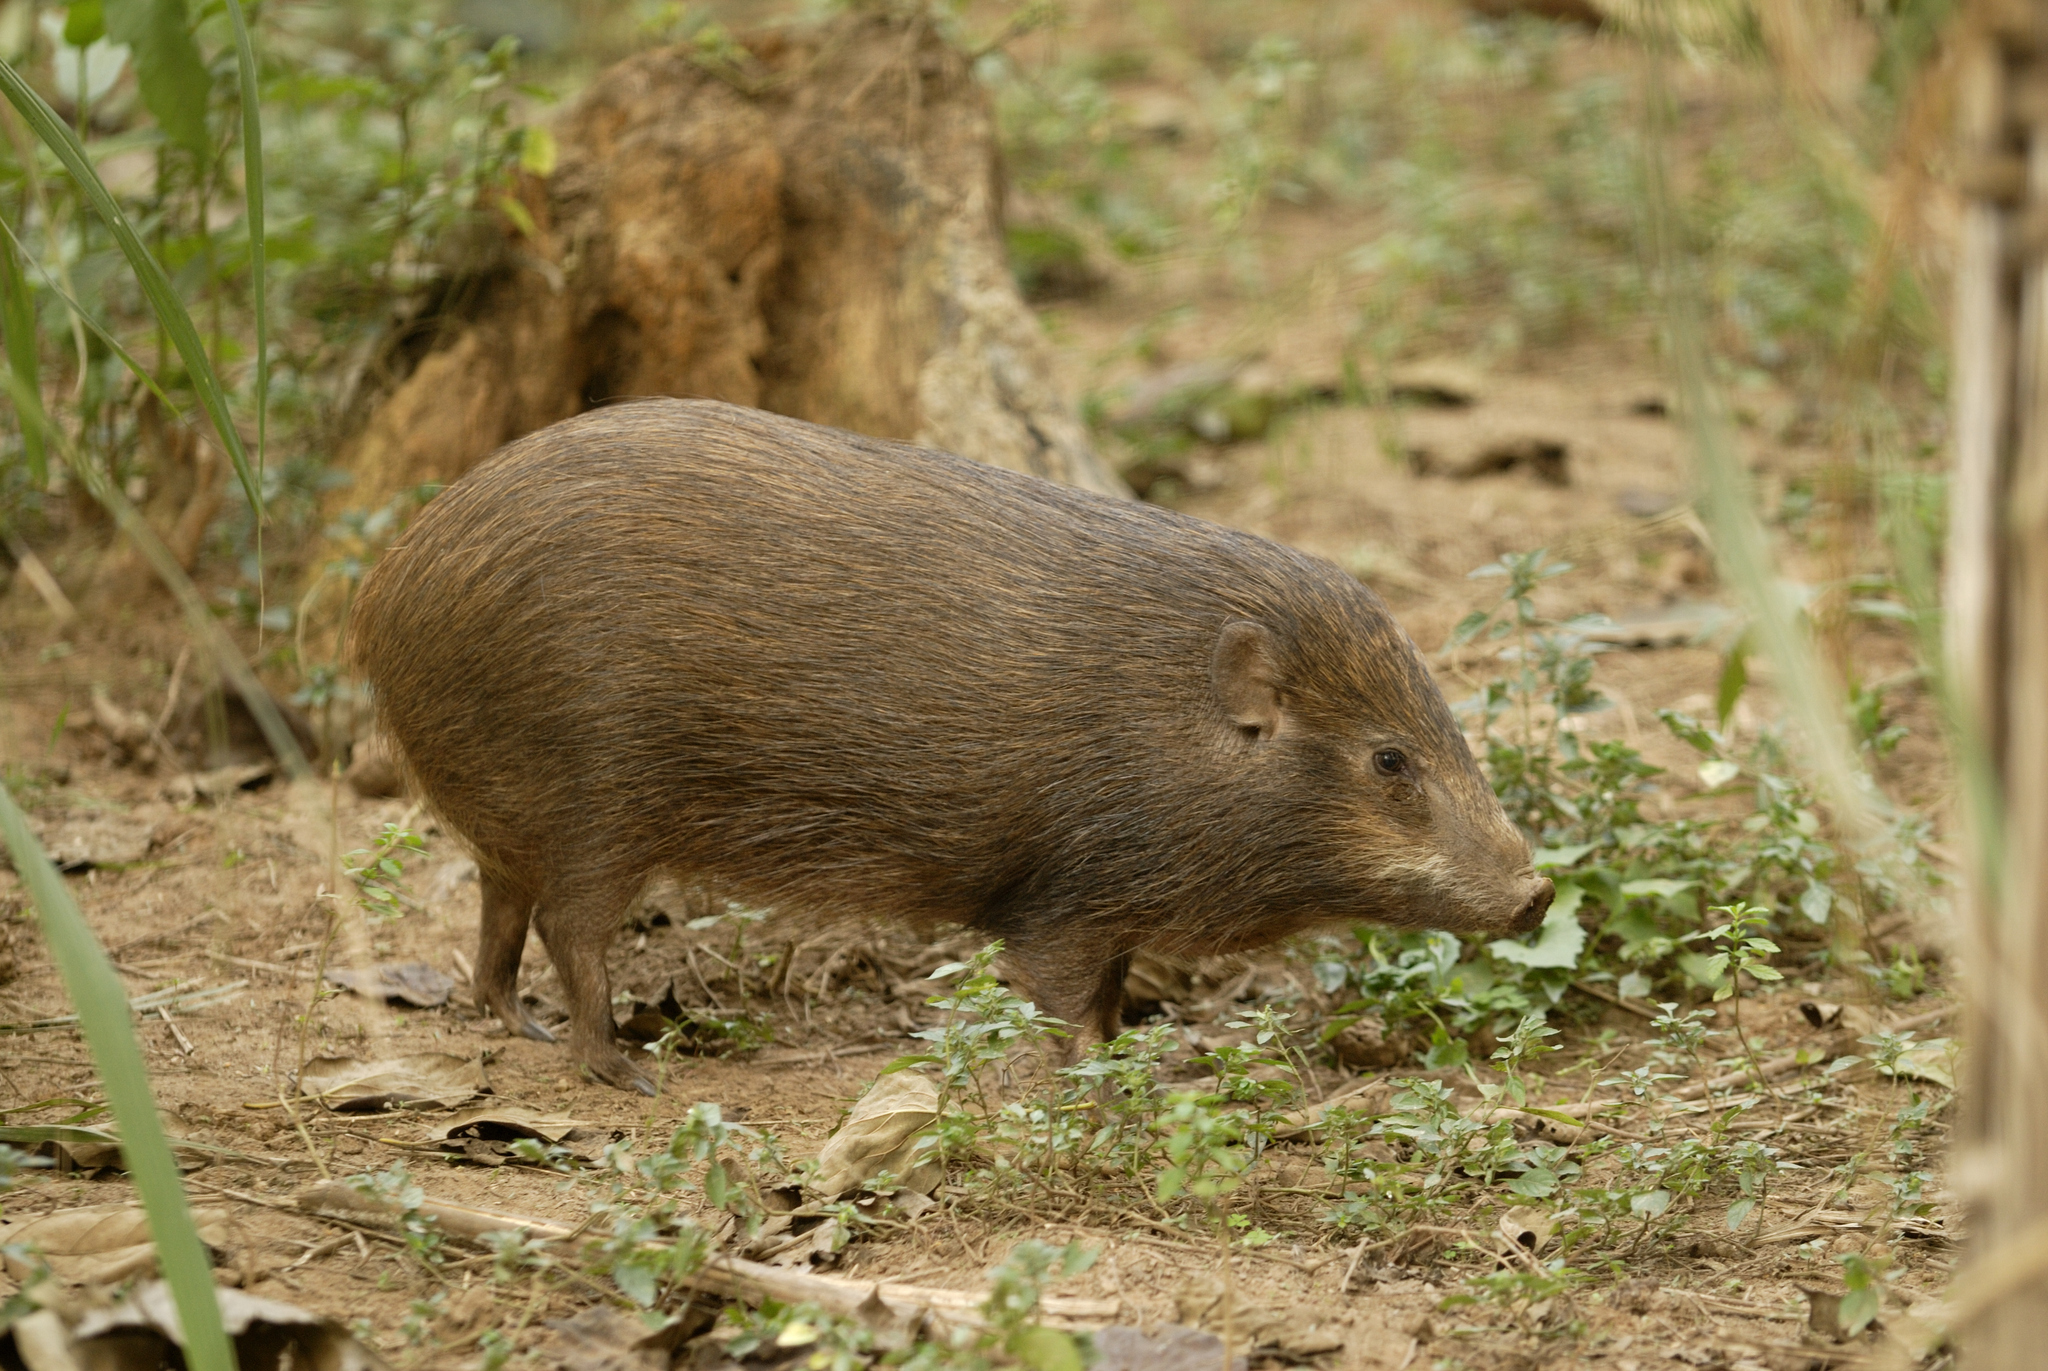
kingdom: Animalia
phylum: Chordata
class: Mammalia
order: Artiodactyla
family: Suidae
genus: Sus
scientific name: Sus salvanius
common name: Pygmy hog
